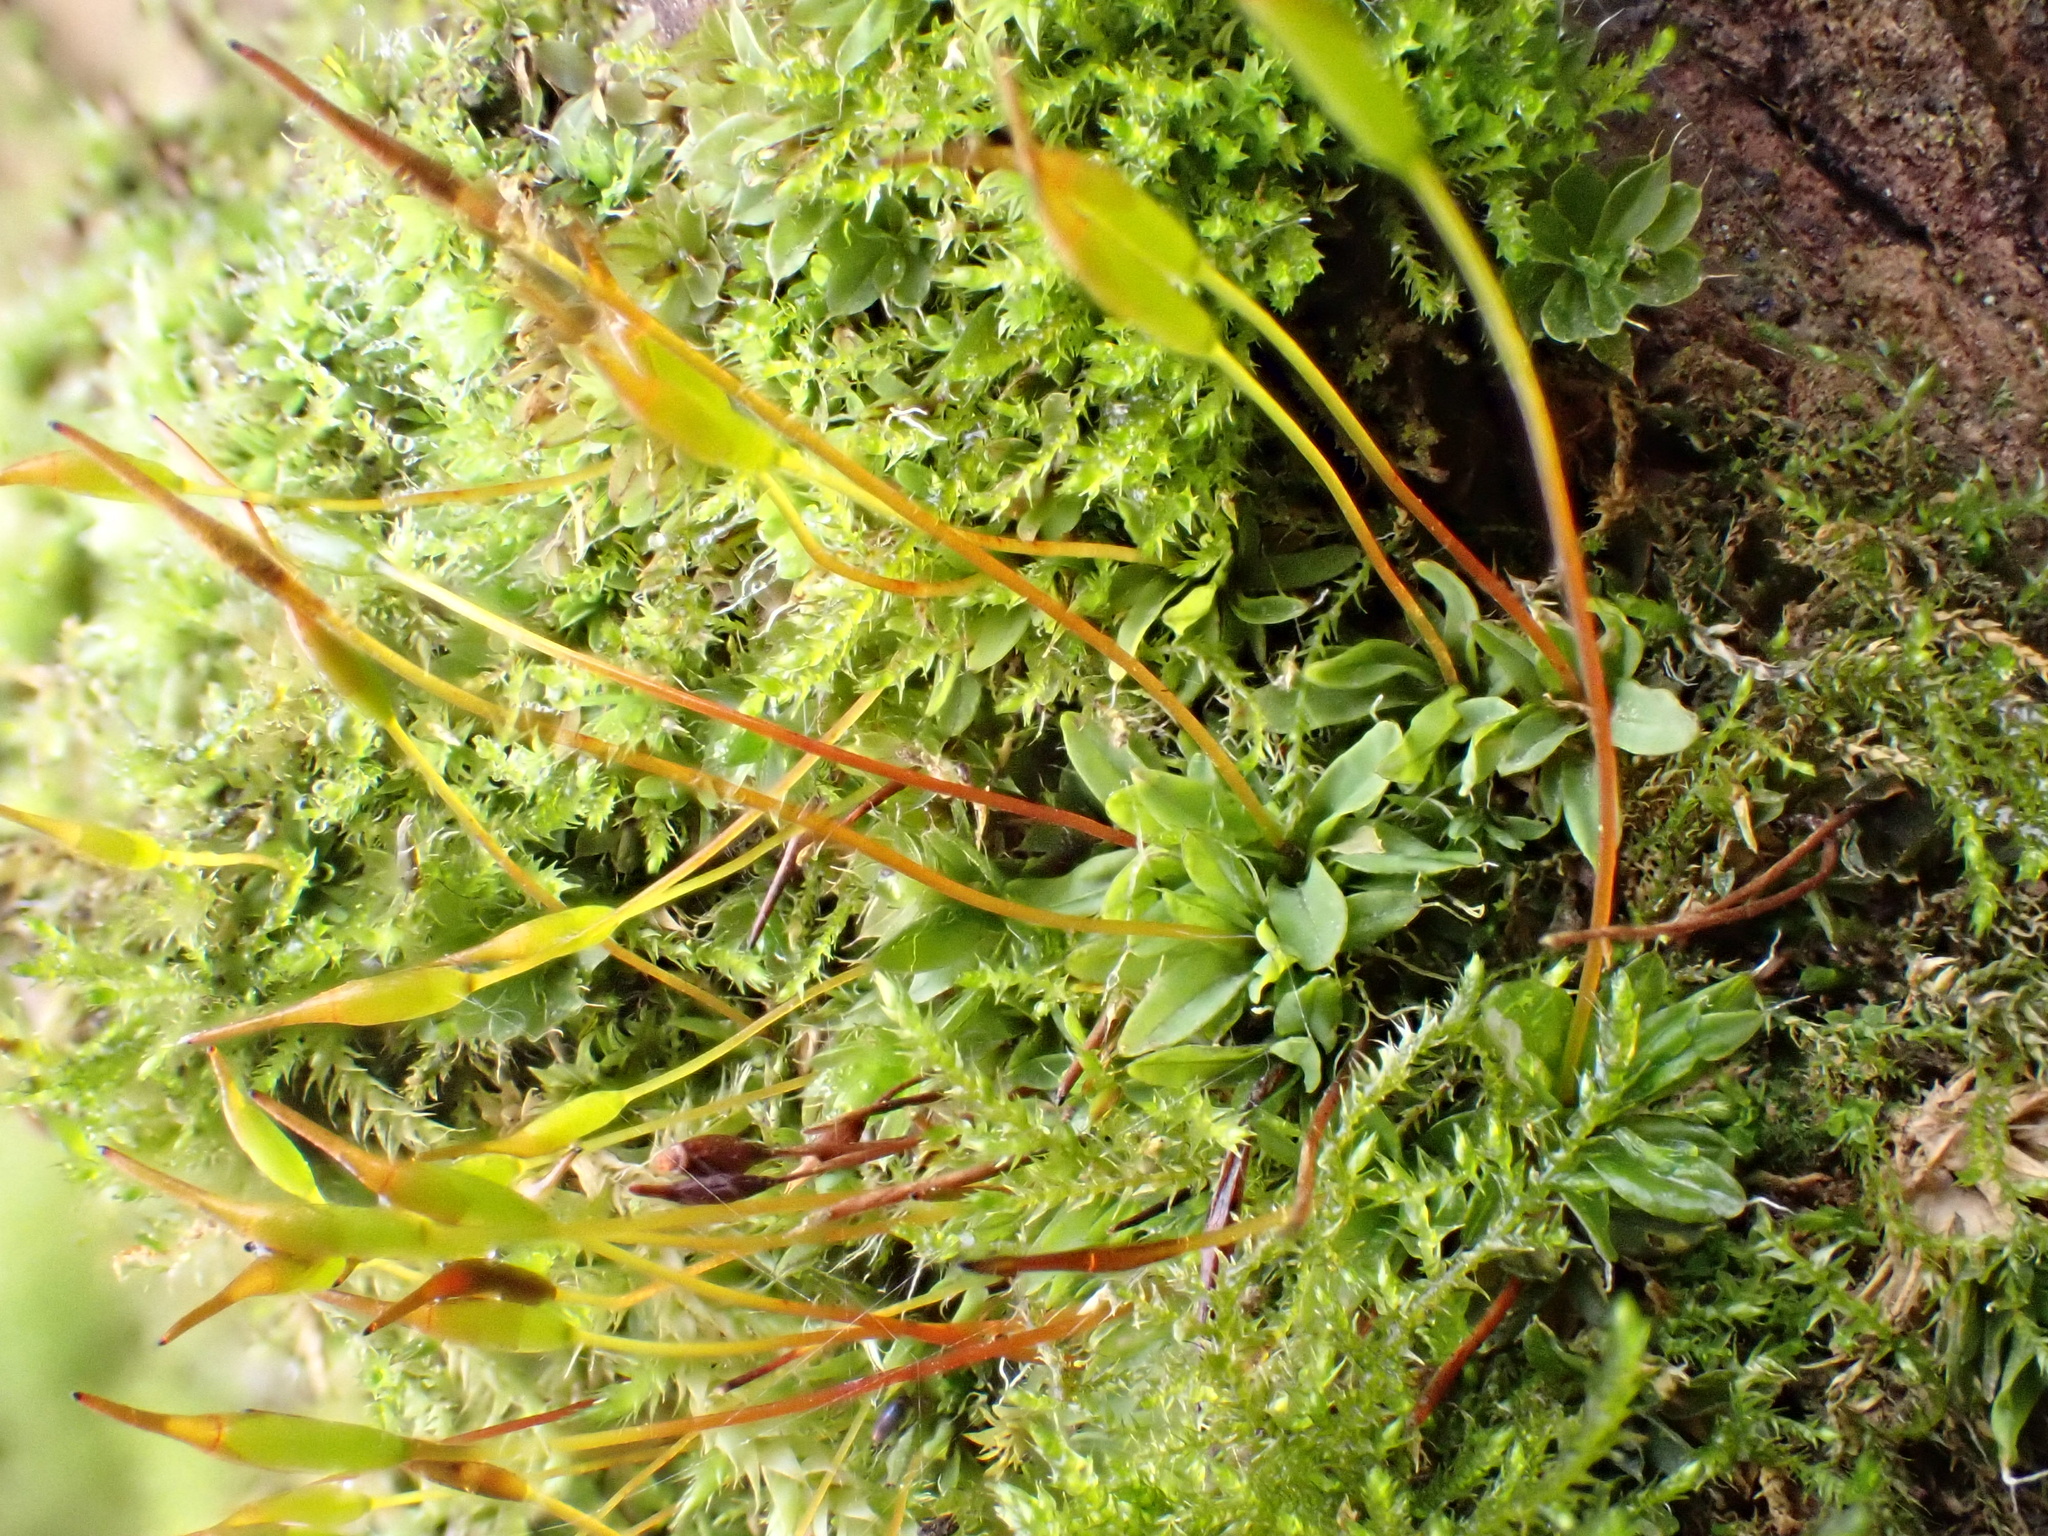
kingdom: Plantae
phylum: Bryophyta
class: Bryopsida
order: Pottiales
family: Pottiaceae
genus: Tortula
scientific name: Tortula muralis
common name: Wall screw-moss
